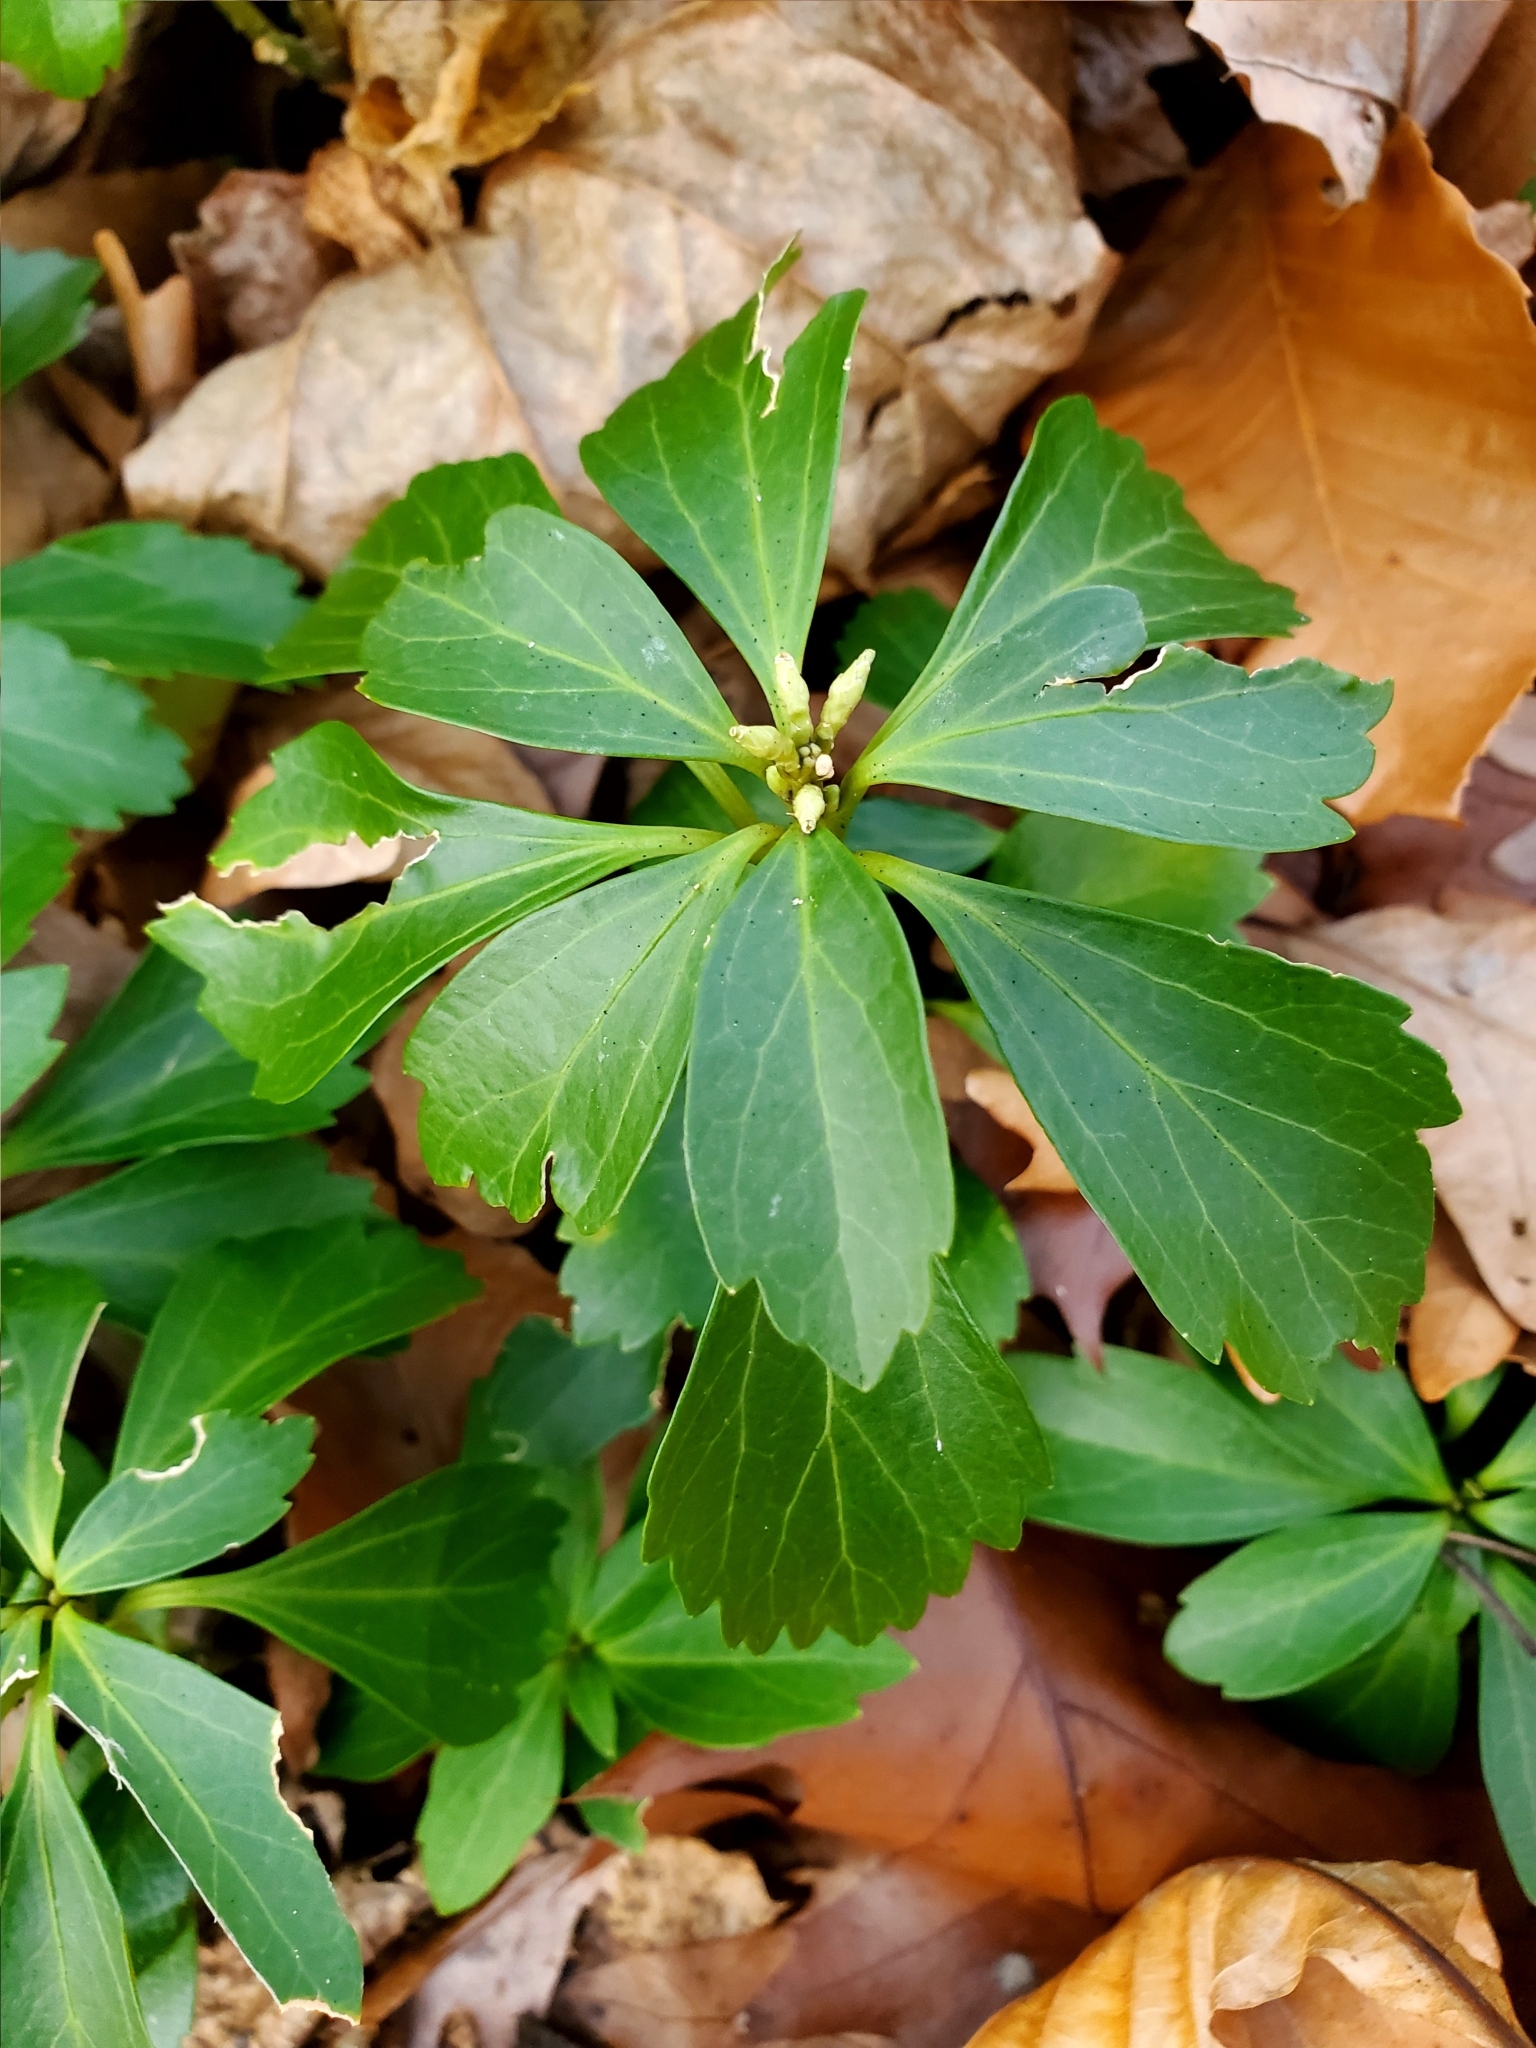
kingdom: Plantae
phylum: Tracheophyta
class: Magnoliopsida
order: Buxales
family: Buxaceae
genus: Pachysandra
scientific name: Pachysandra terminalis
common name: Japanese pachysandra
